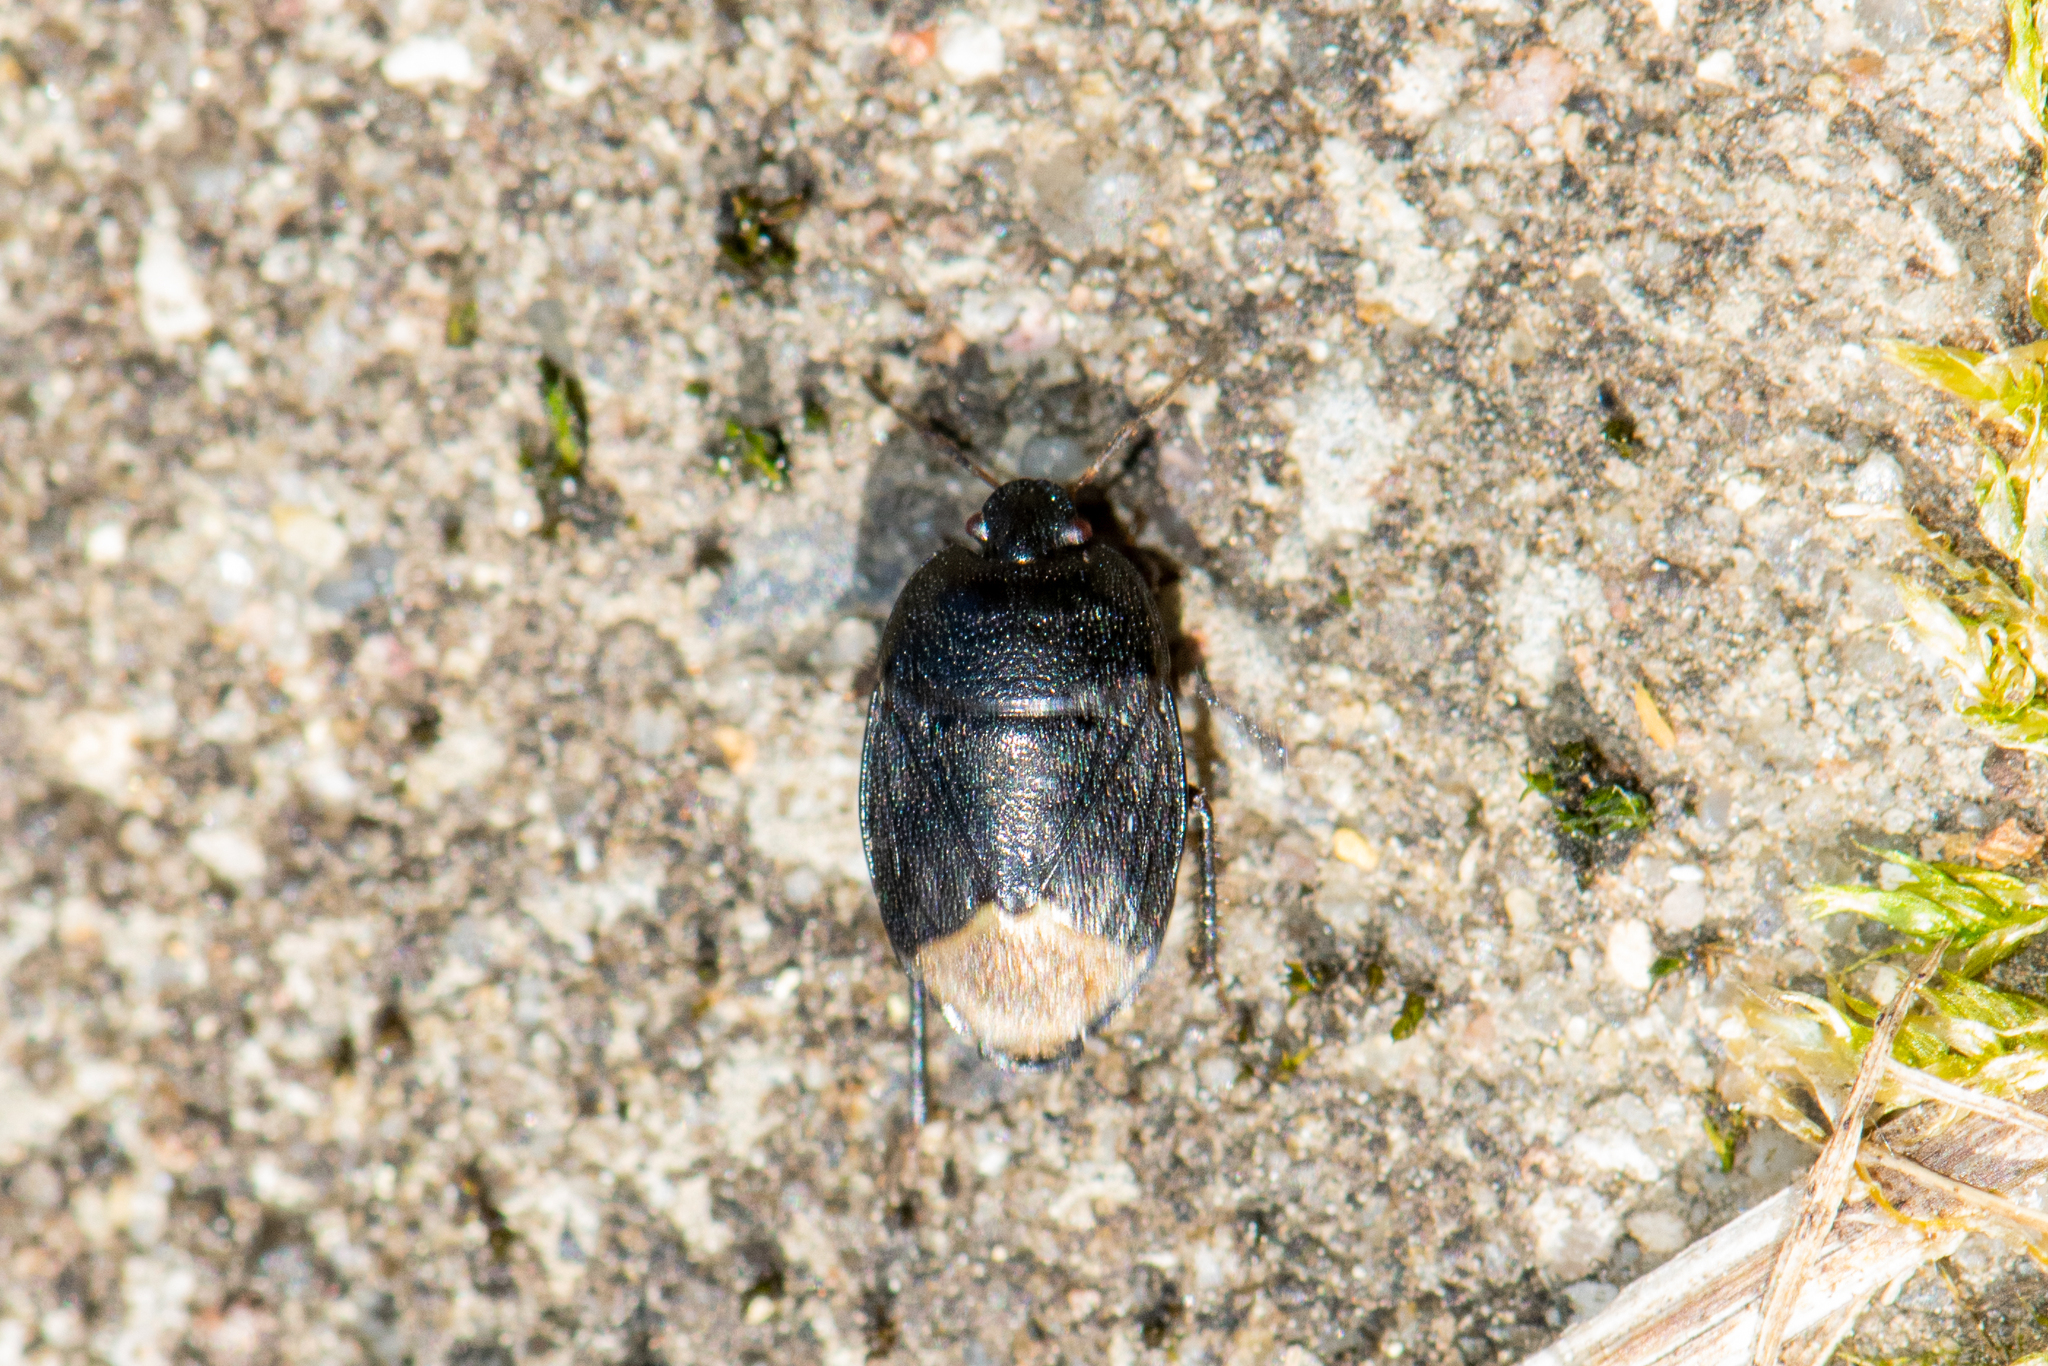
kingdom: Animalia
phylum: Arthropoda
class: Insecta
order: Hemiptera
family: Cydnidae
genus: Sehirus
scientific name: Sehirus luctuosus
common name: Forget-me-not shieldbug
